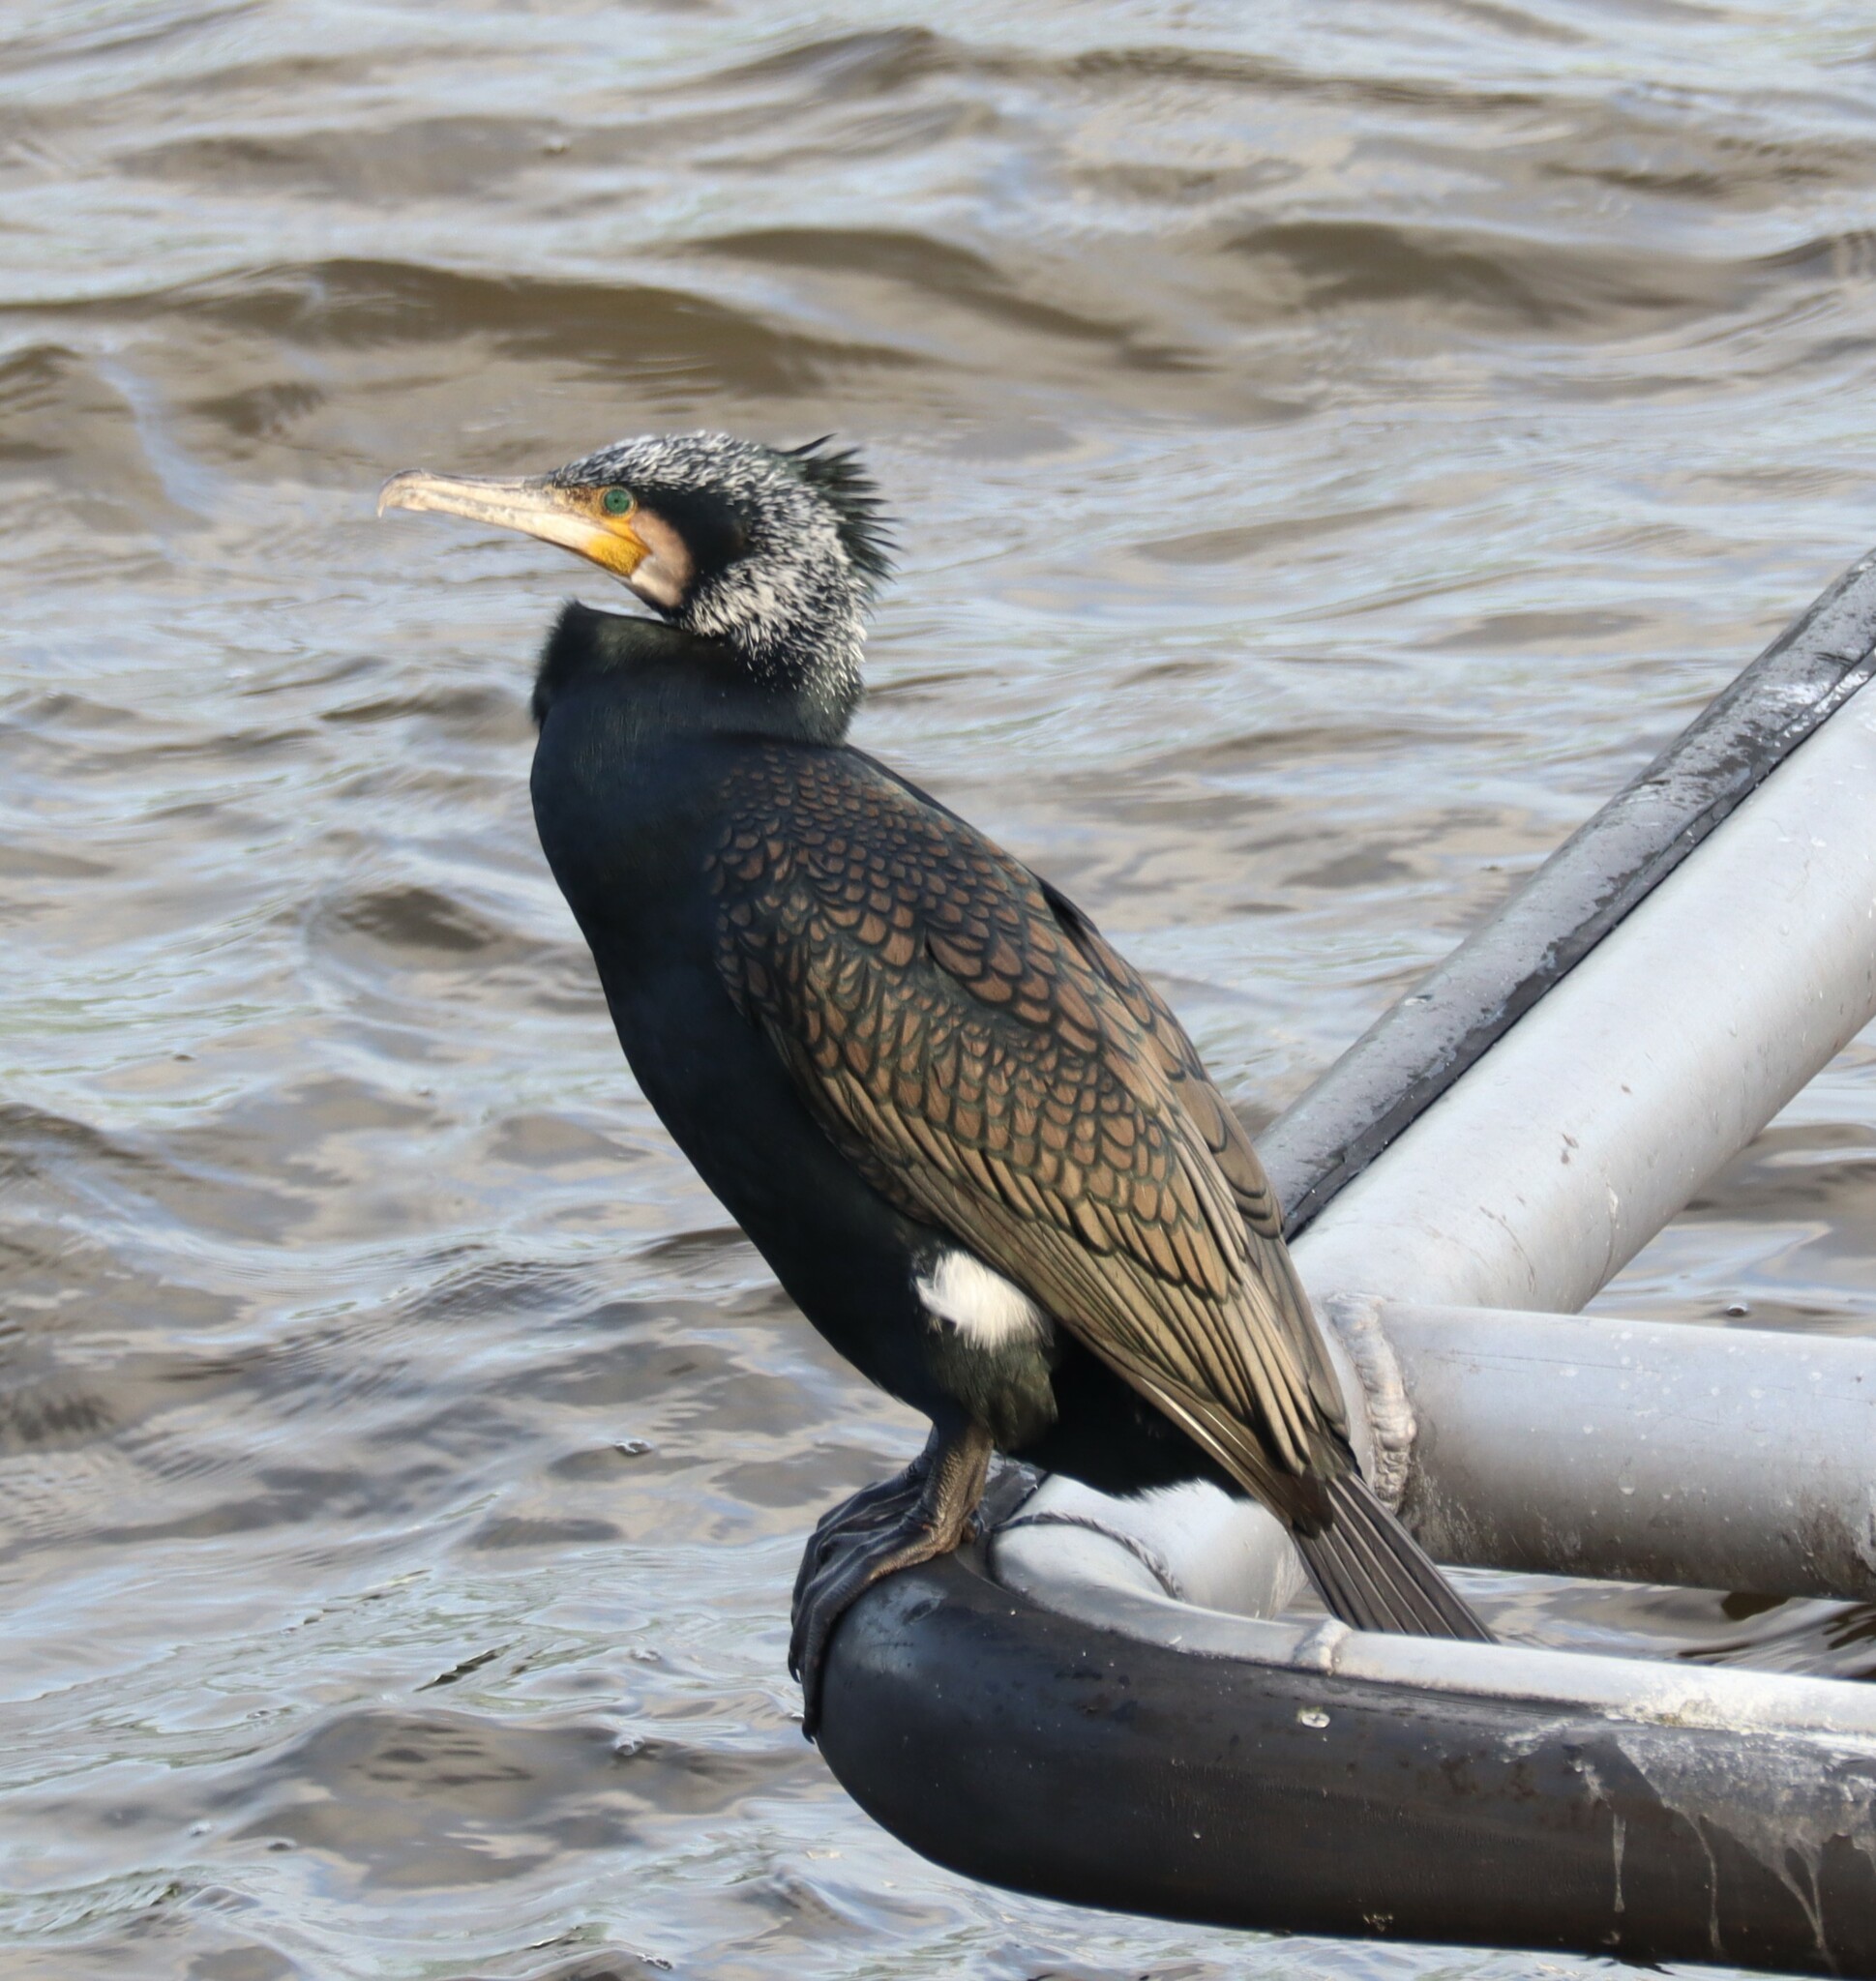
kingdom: Animalia
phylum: Chordata
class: Aves
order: Suliformes
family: Phalacrocoracidae
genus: Phalacrocorax
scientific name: Phalacrocorax carbo
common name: Great cormorant
